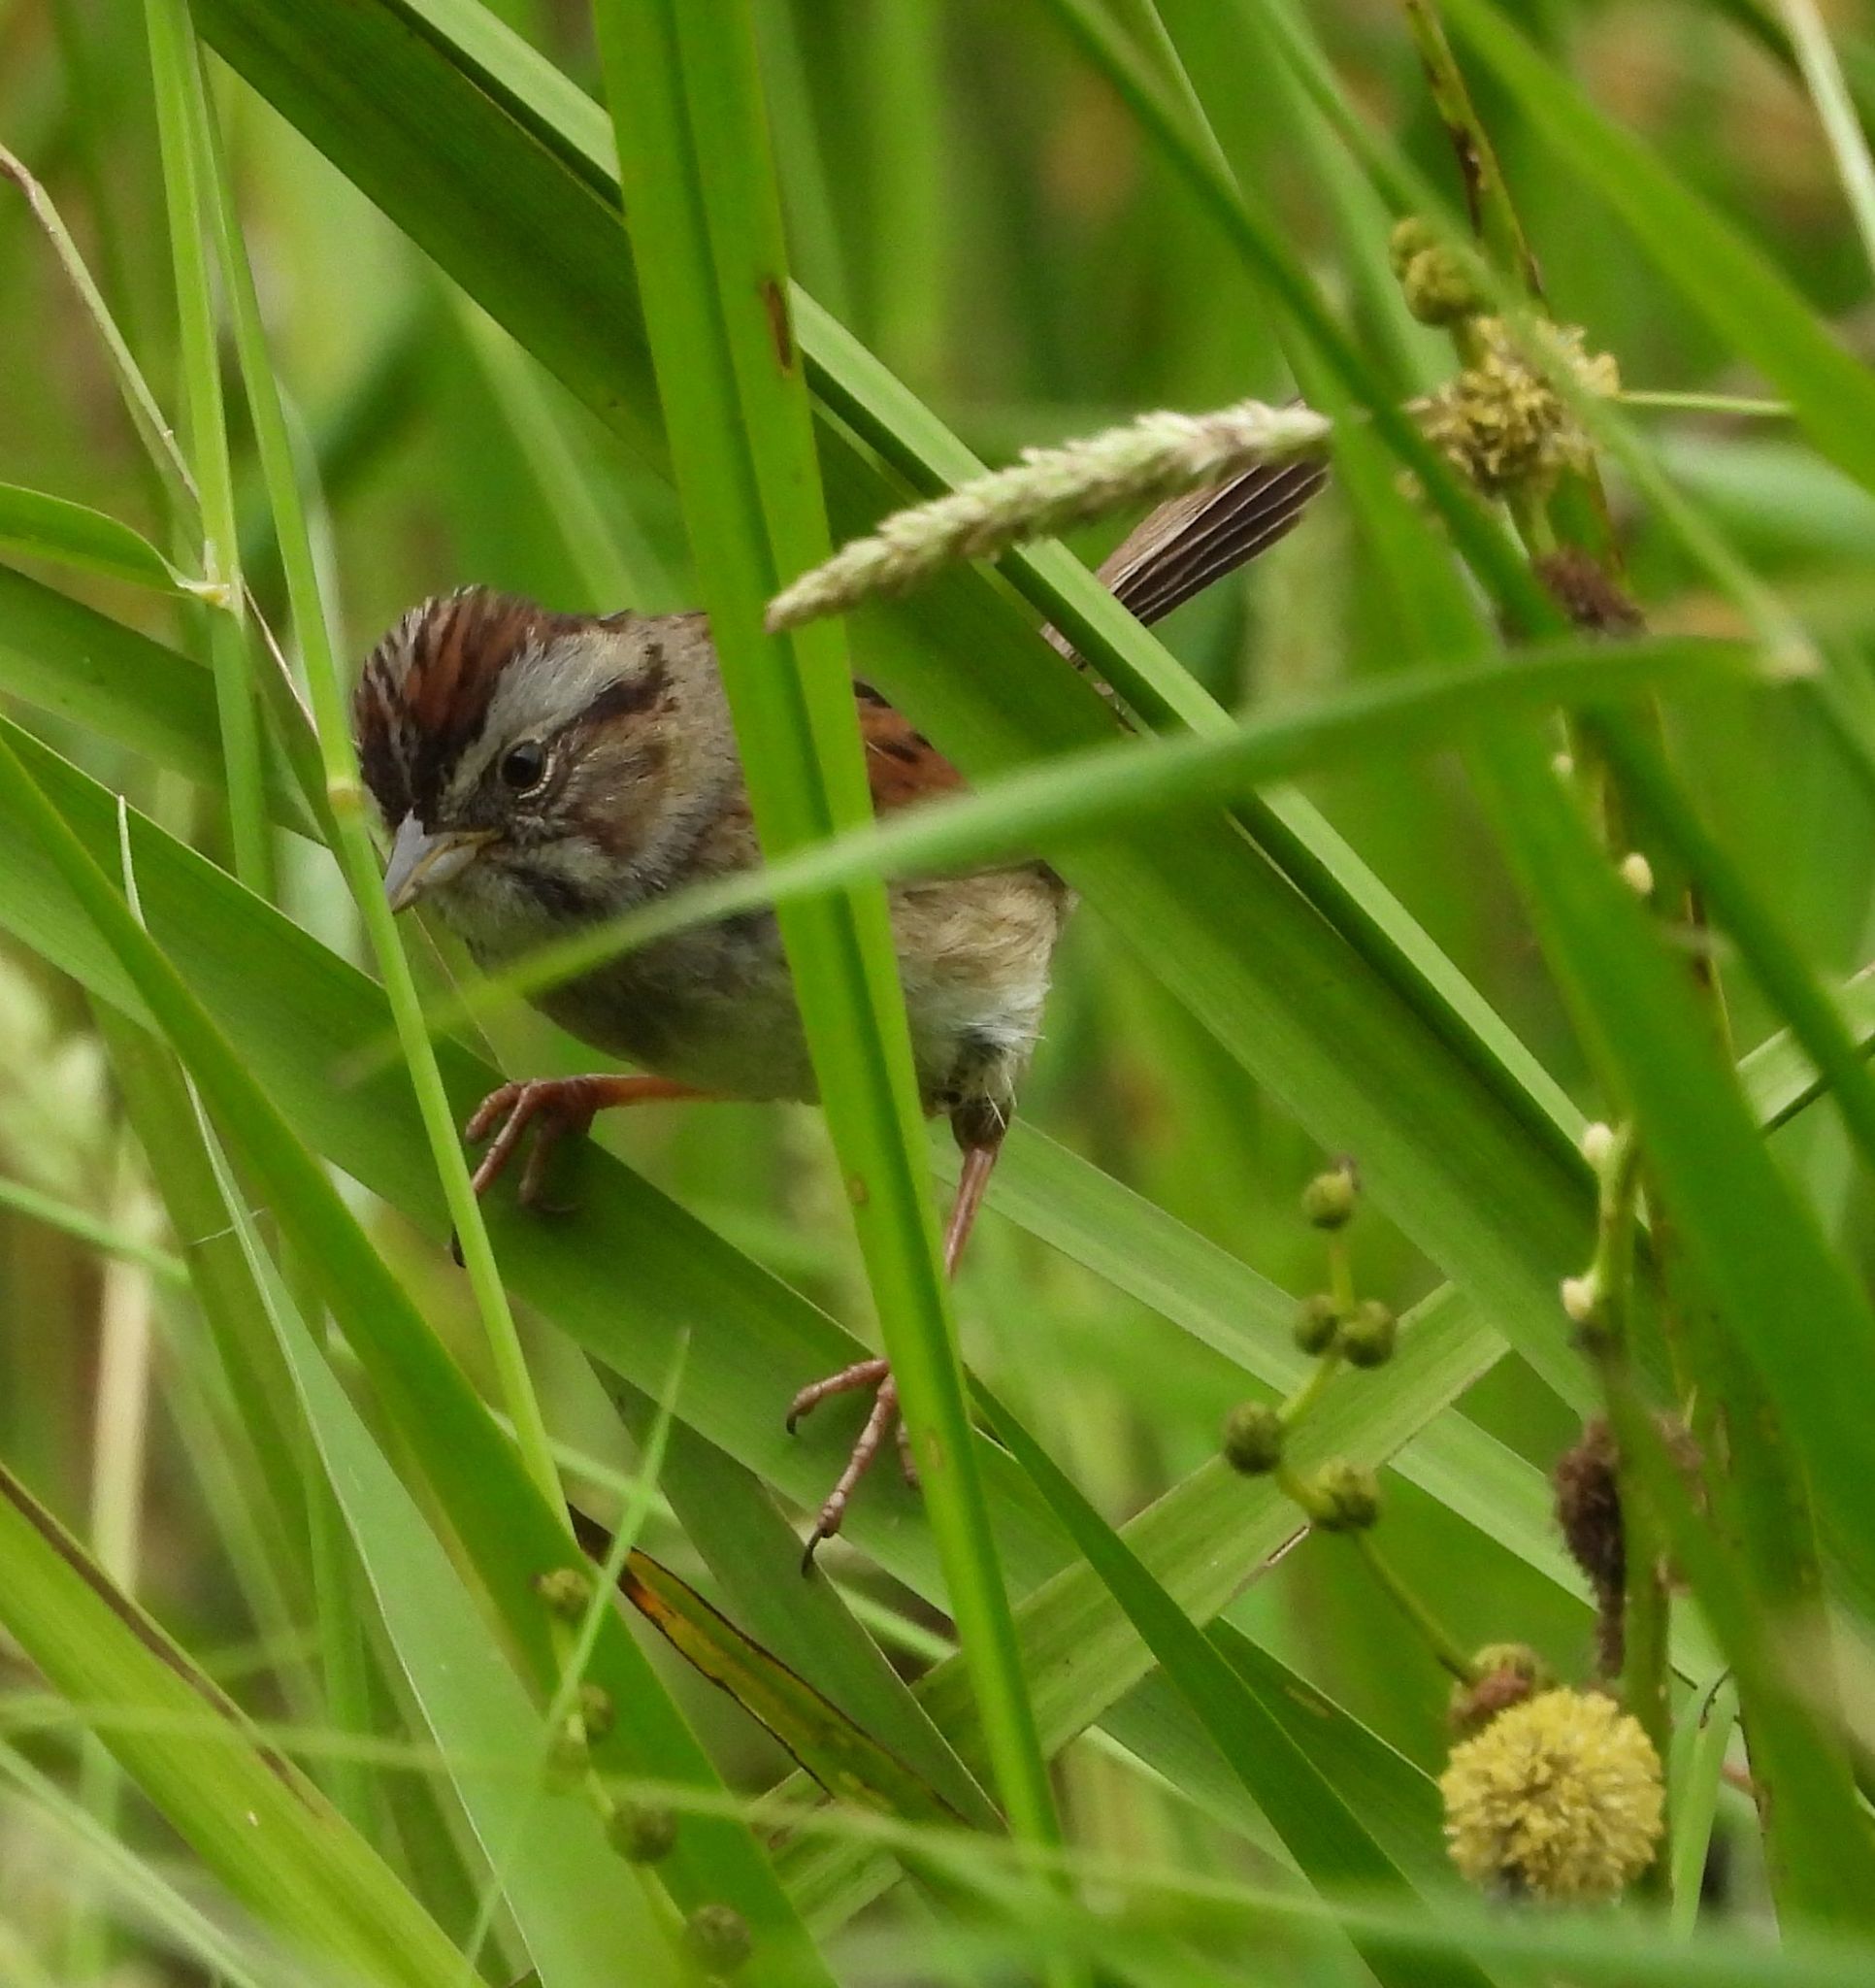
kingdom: Animalia
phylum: Chordata
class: Aves
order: Passeriformes
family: Passerellidae
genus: Melospiza
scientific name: Melospiza georgiana
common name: Swamp sparrow
